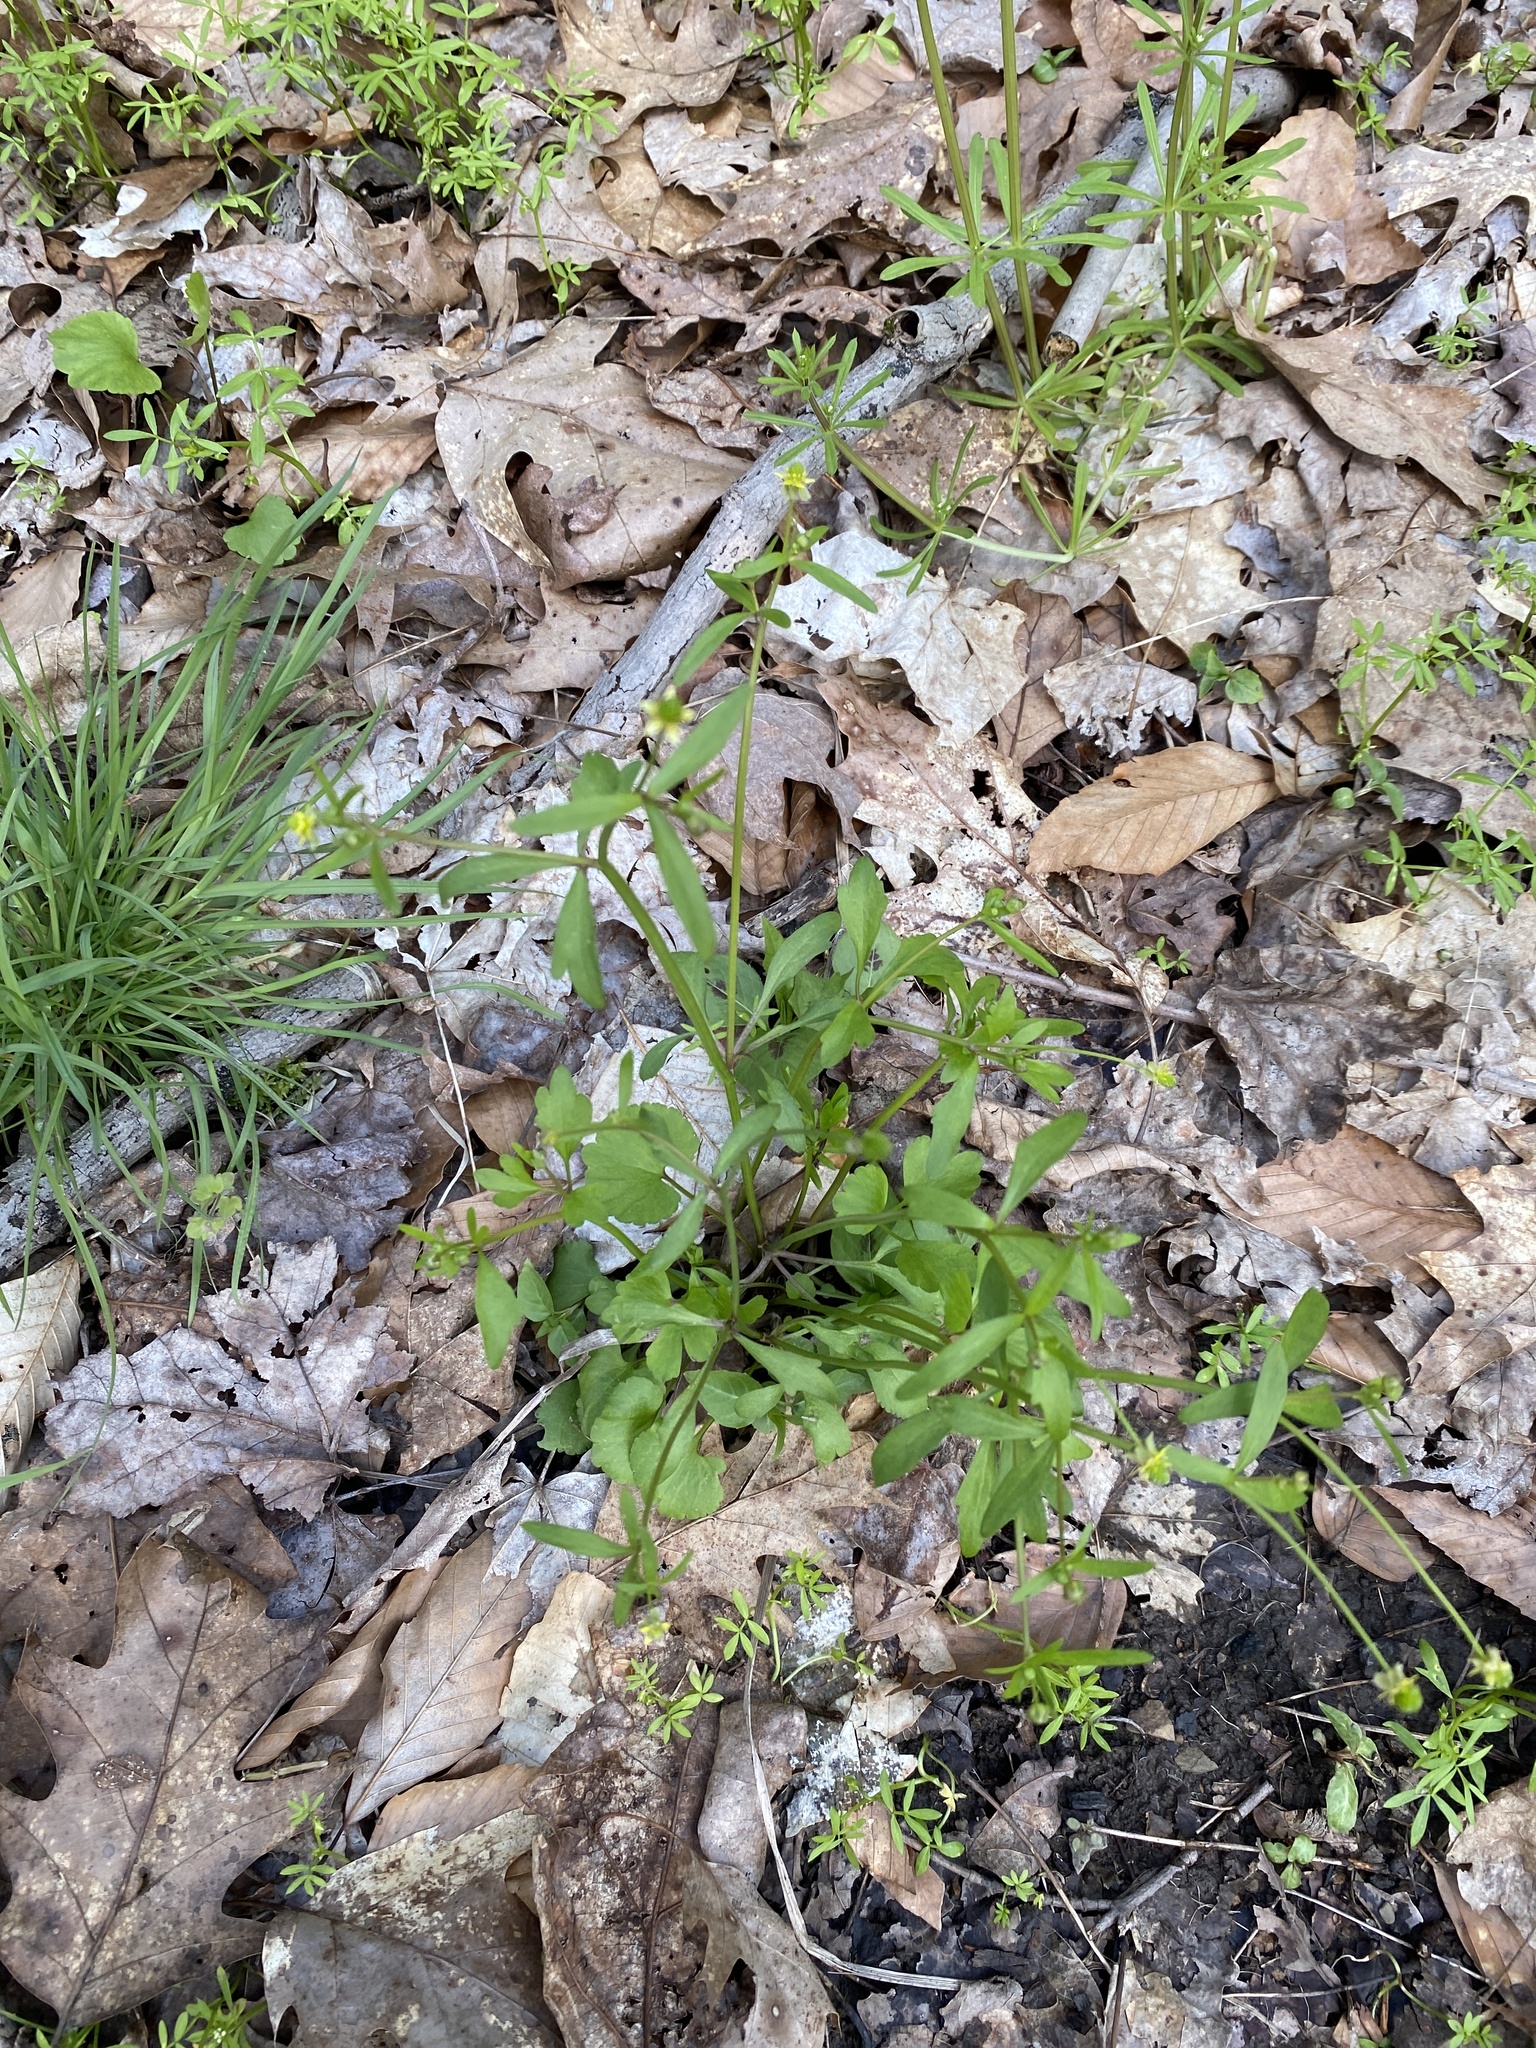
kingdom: Plantae
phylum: Tracheophyta
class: Magnoliopsida
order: Ranunculales
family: Ranunculaceae
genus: Ranunculus
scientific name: Ranunculus abortivus
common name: Early wood buttercup
